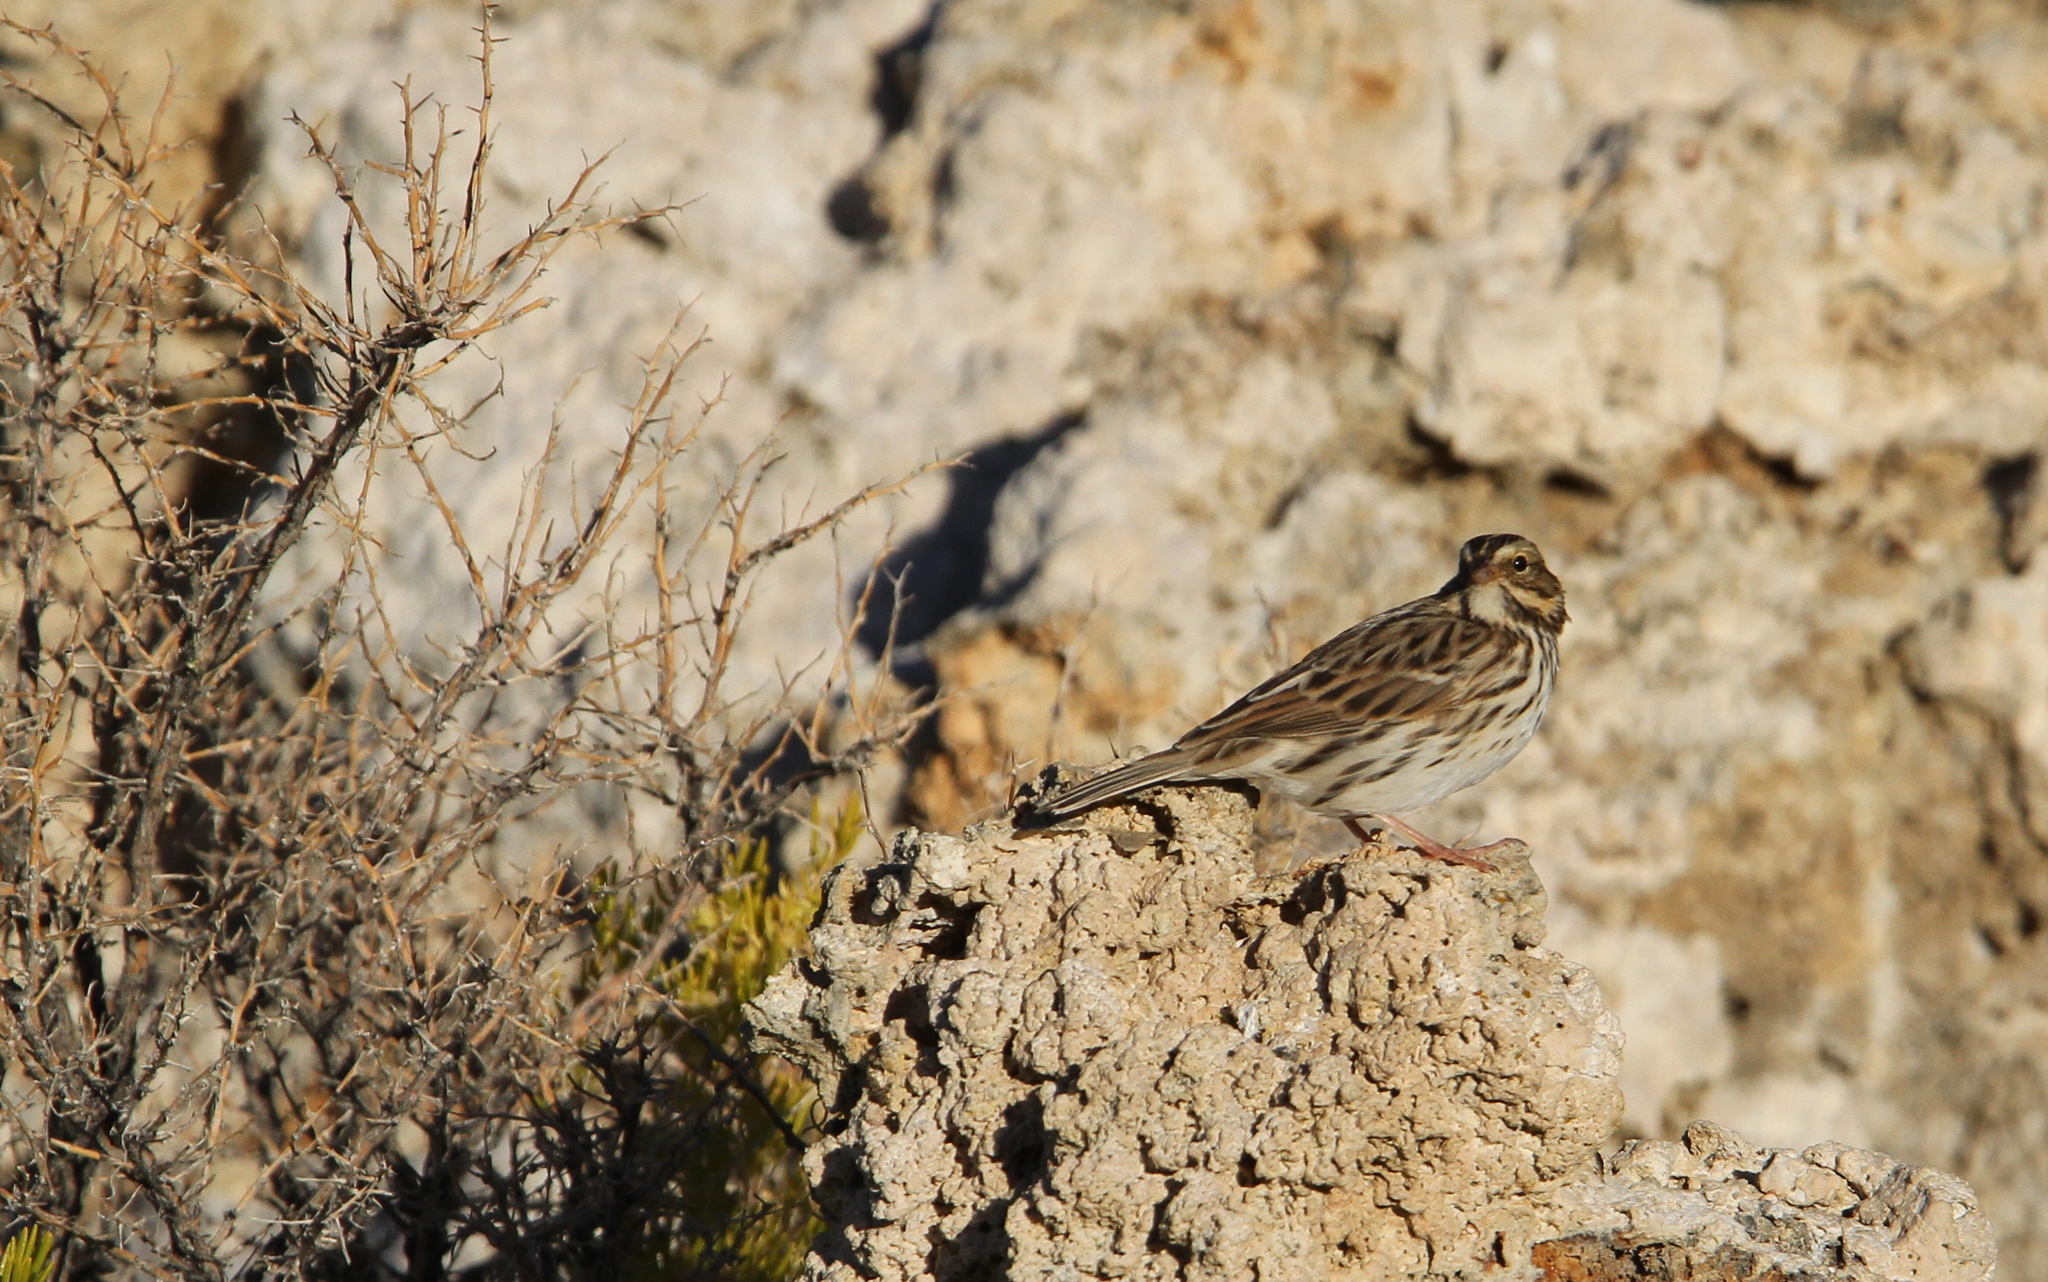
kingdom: Animalia
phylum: Chordata
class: Aves
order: Passeriformes
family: Passerellidae
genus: Passerculus
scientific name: Passerculus sandwichensis
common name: Savannah sparrow
